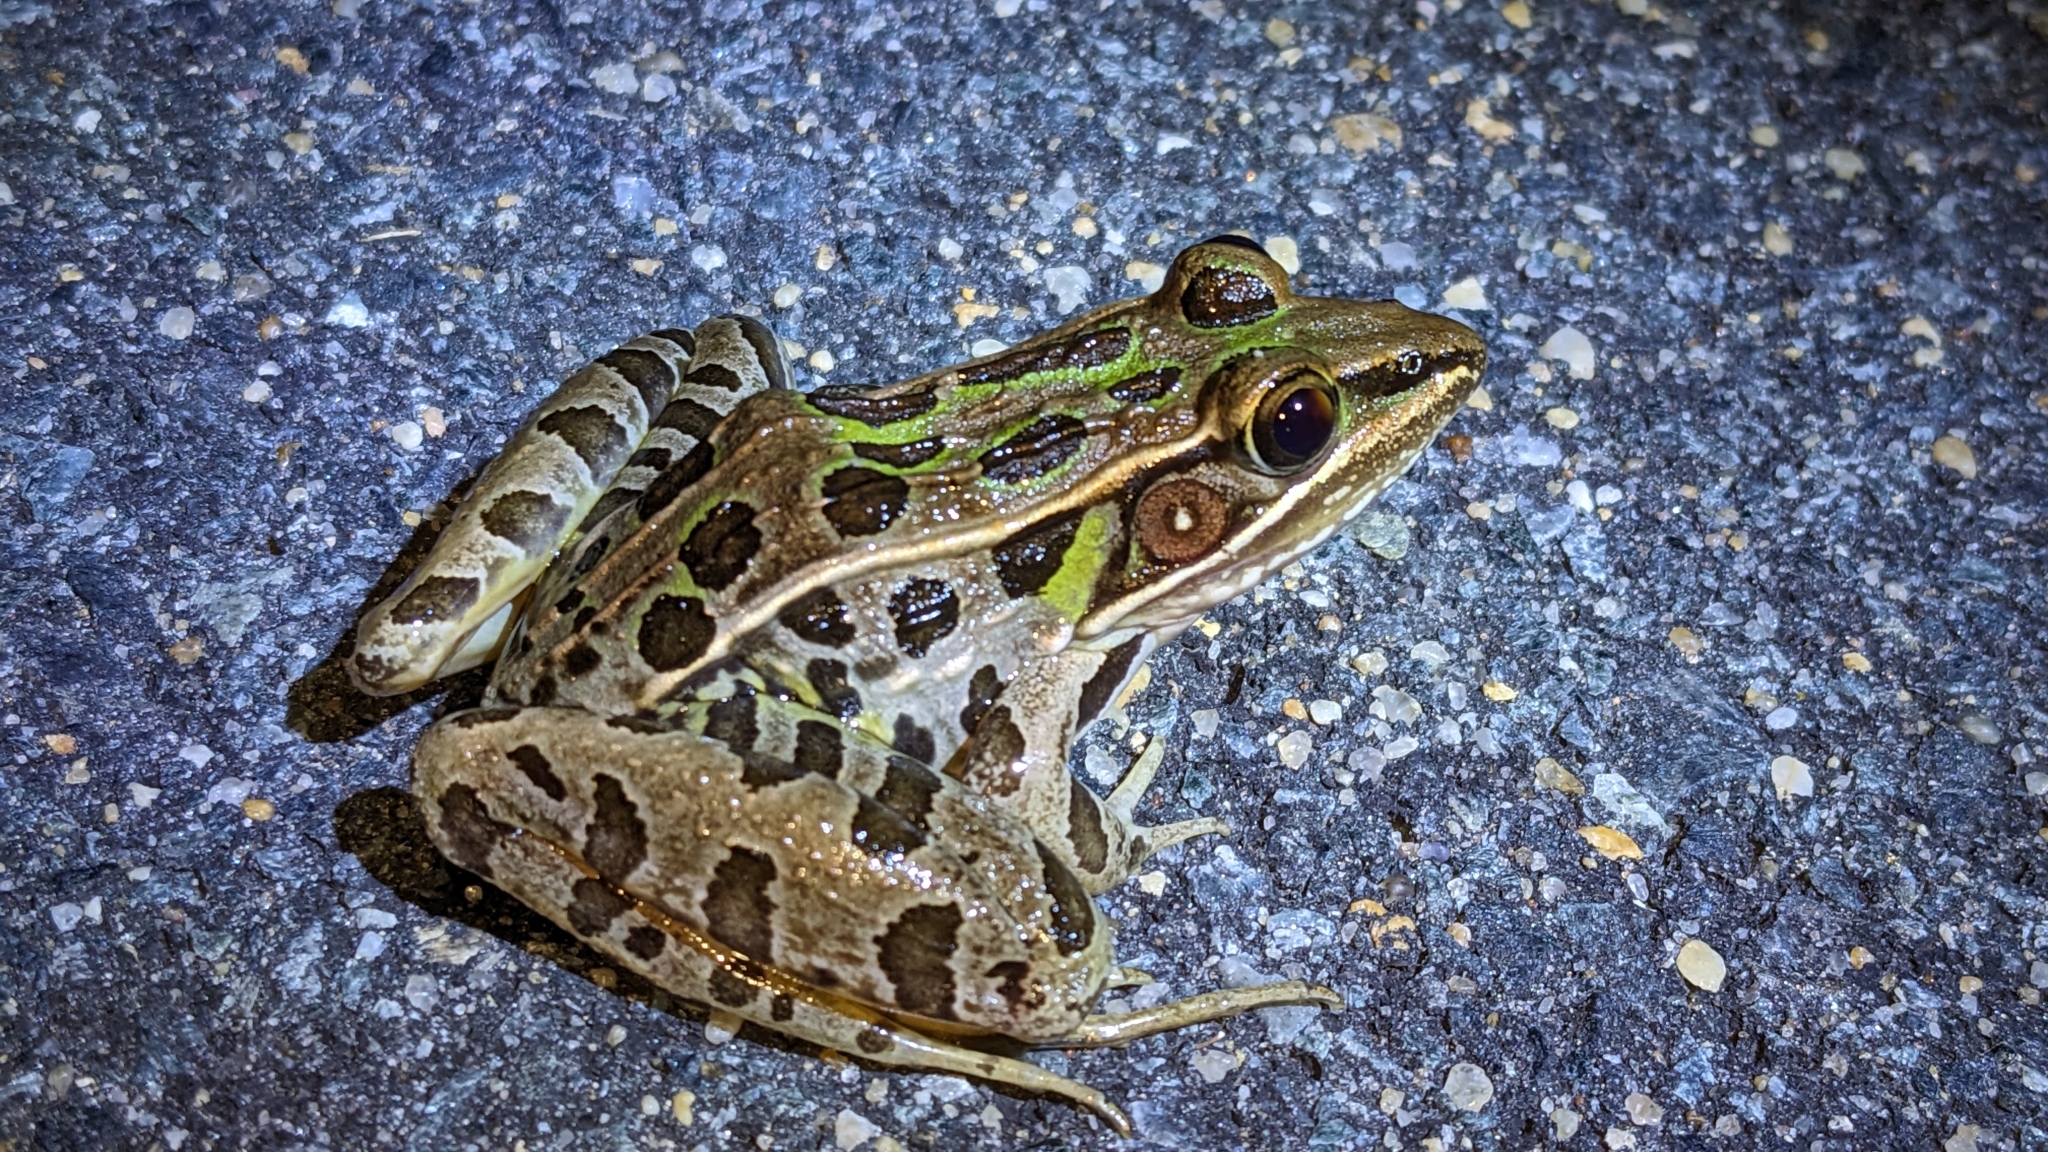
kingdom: Animalia
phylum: Chordata
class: Amphibia
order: Anura
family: Ranidae
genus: Lithobates
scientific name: Lithobates sphenocephalus
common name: Southern leopard frog
